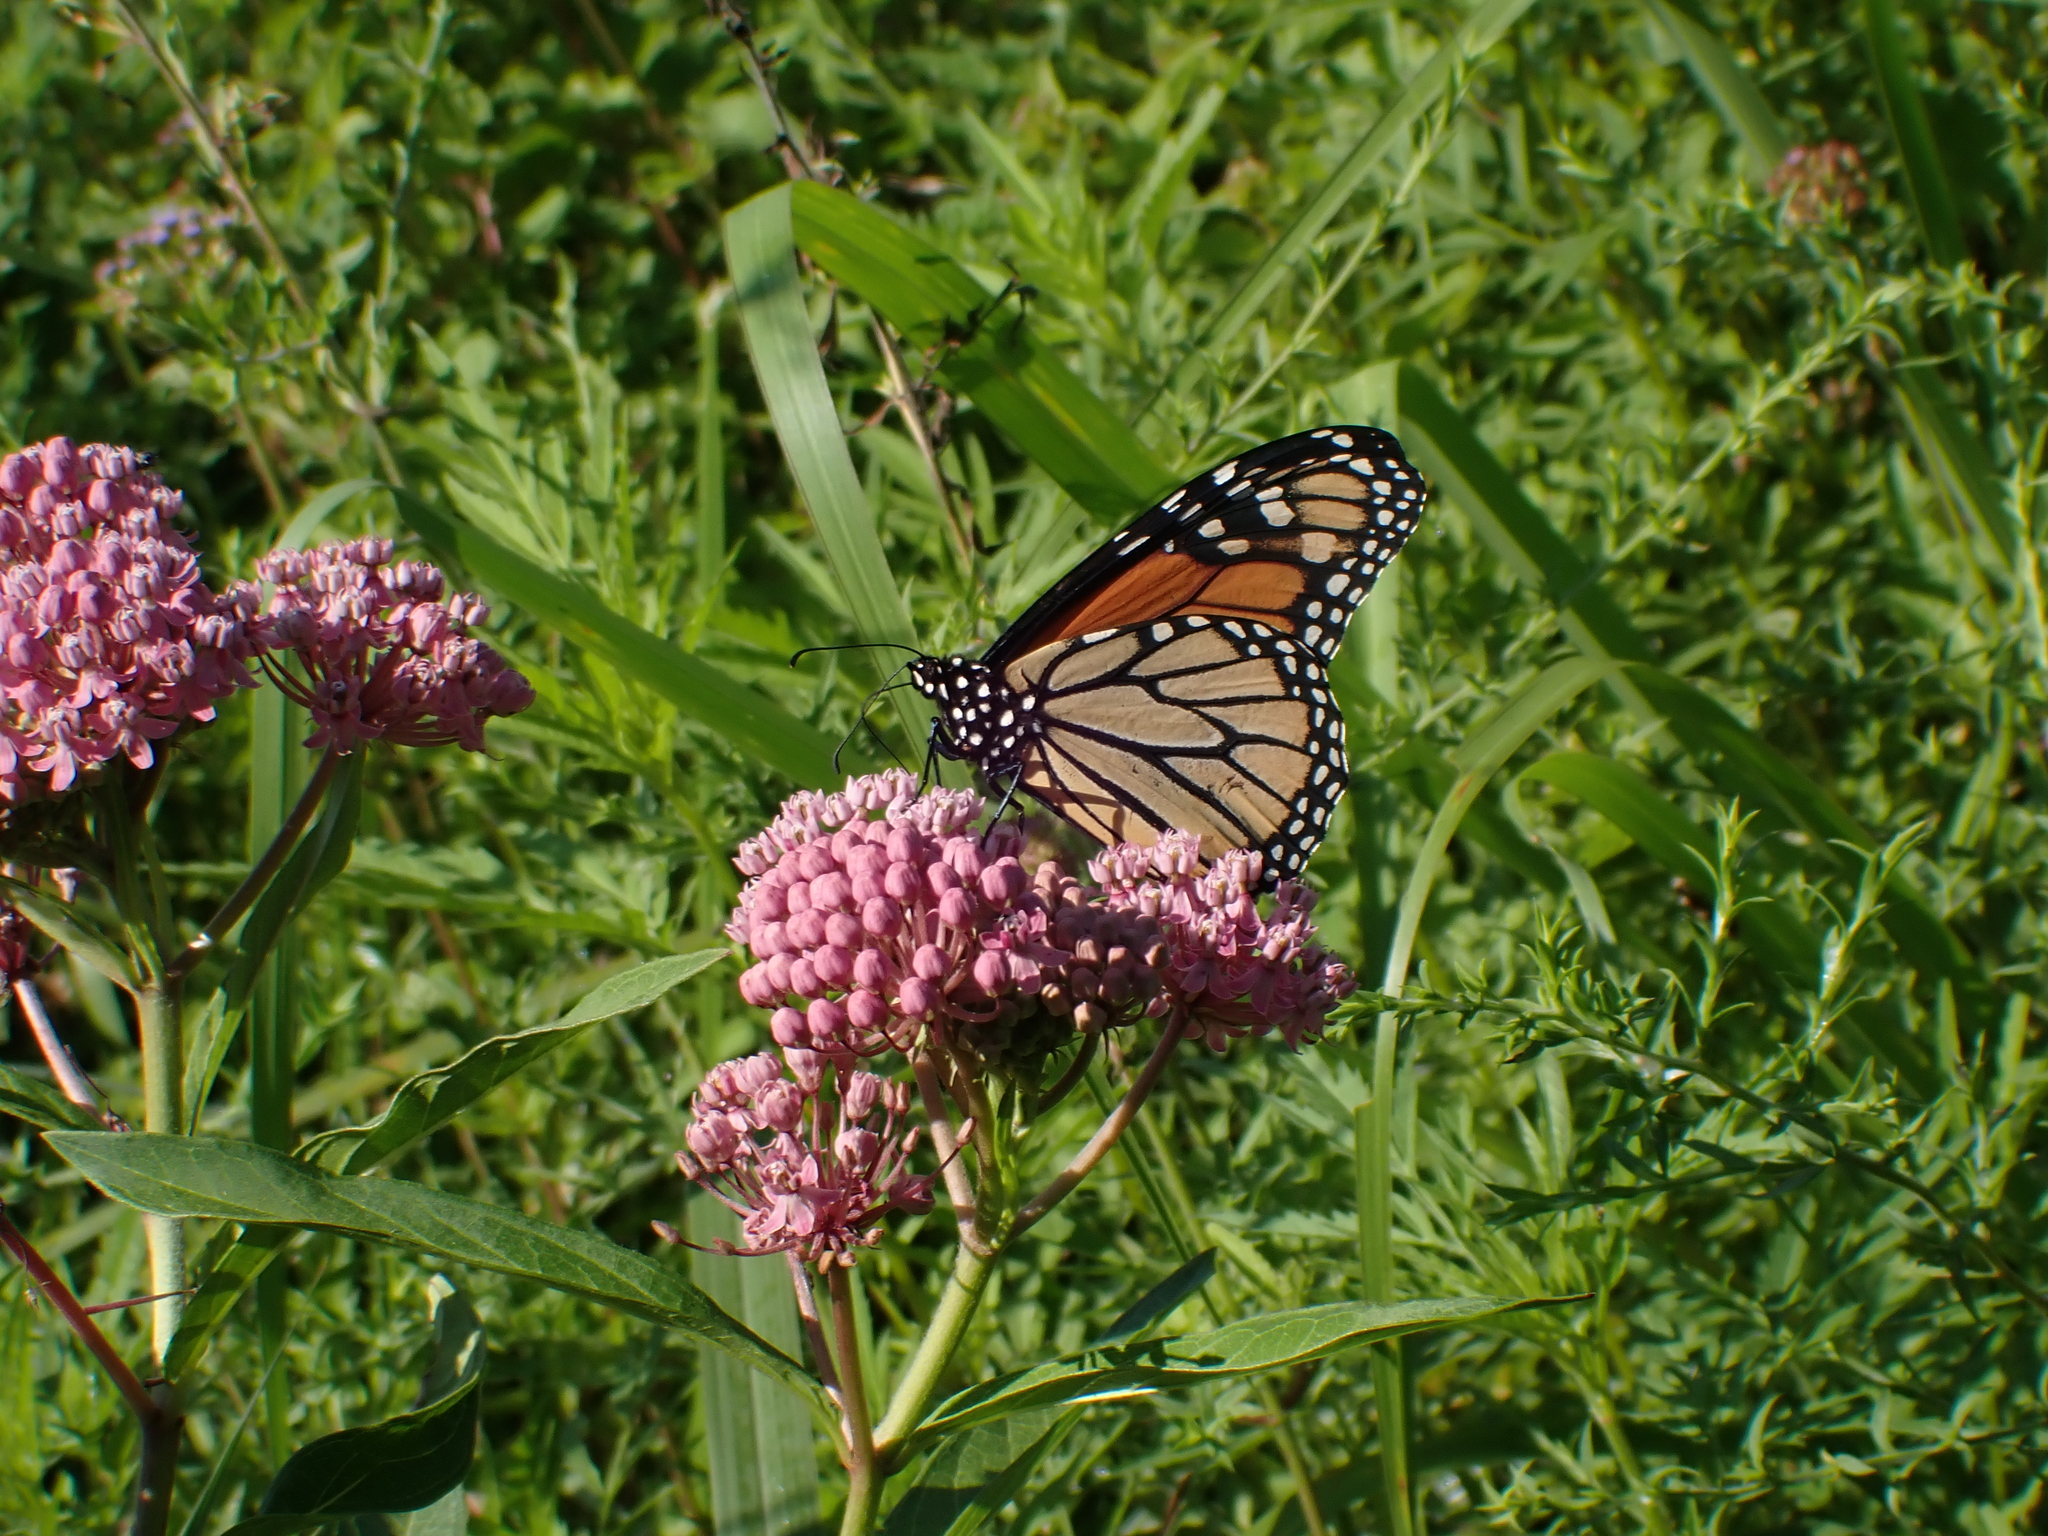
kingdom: Plantae
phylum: Tracheophyta
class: Magnoliopsida
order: Gentianales
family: Apocynaceae
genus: Asclepias
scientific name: Asclepias incarnata
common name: Swamp milkweed
